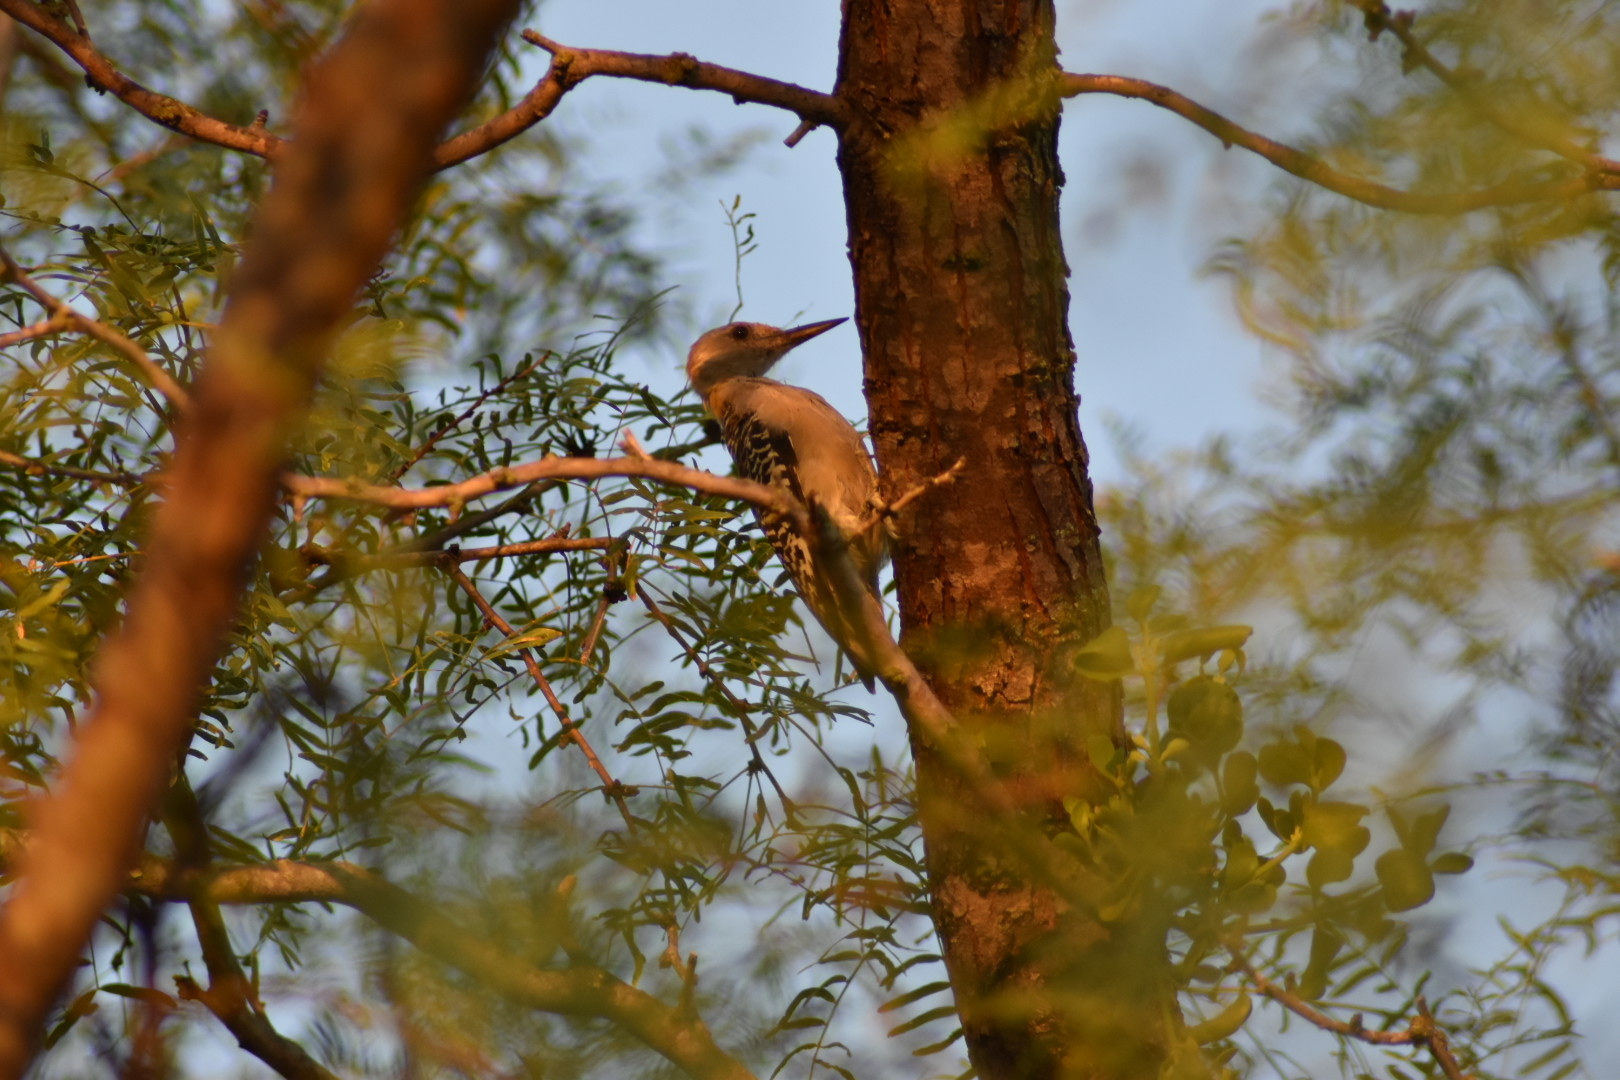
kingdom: Animalia
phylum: Chordata
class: Aves
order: Piciformes
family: Picidae
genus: Melanerpes
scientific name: Melanerpes aurifrons
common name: Golden-fronted woodpecker
